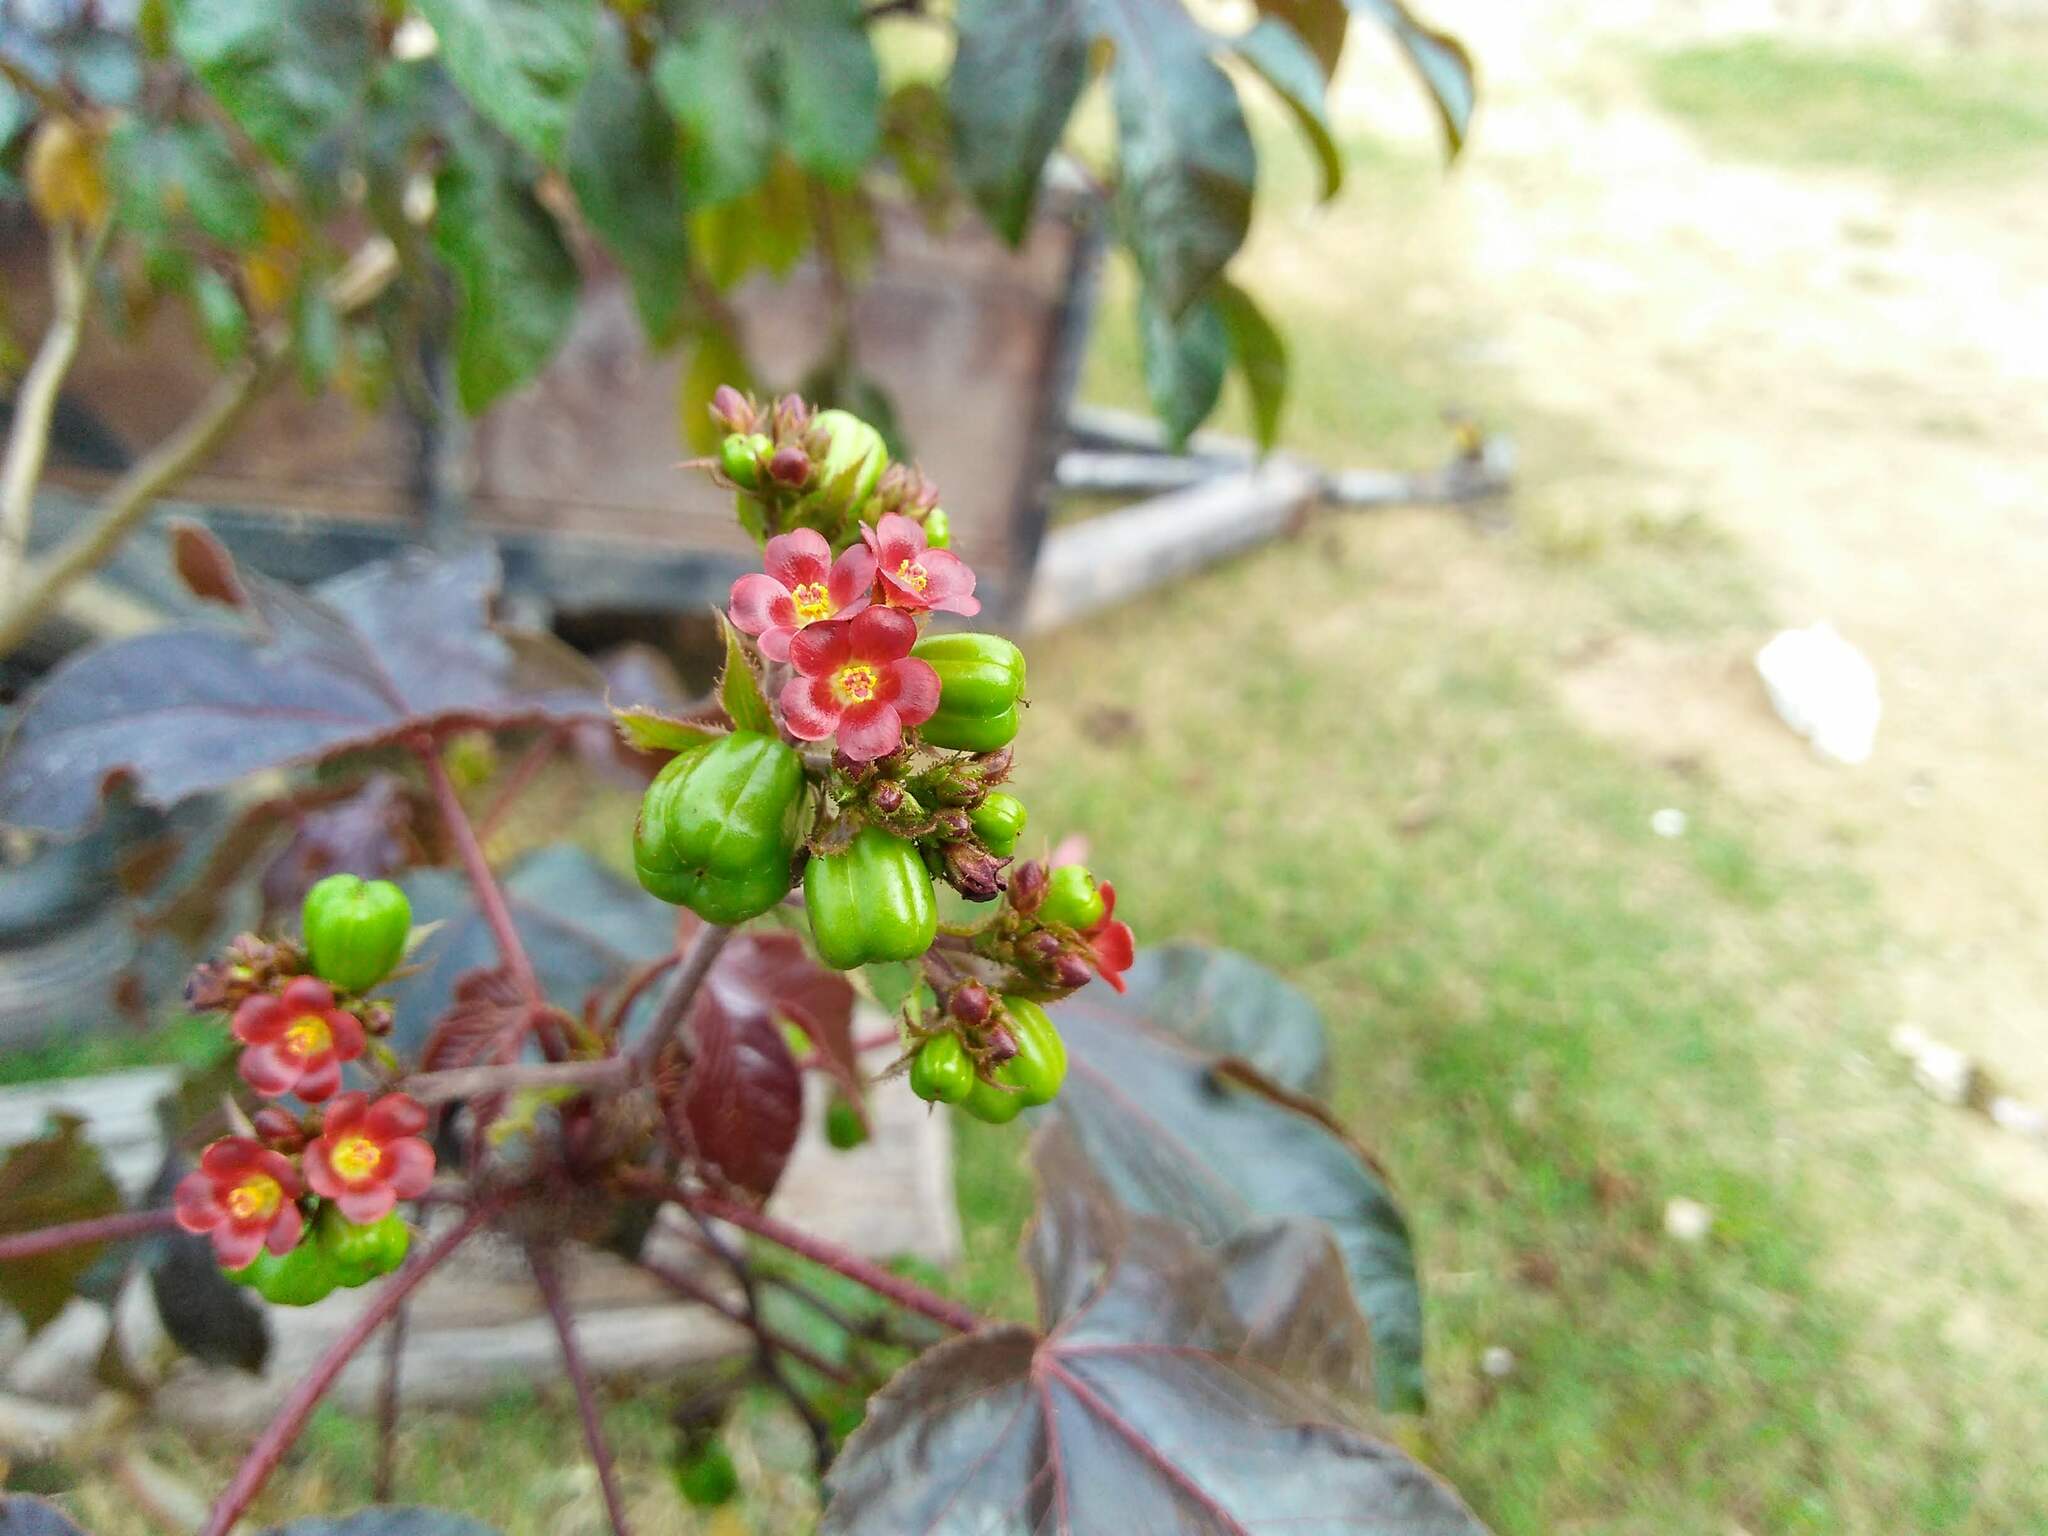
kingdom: Plantae
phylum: Tracheophyta
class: Magnoliopsida
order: Malpighiales
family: Euphorbiaceae
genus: Jatropha
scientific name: Jatropha gossypiifolia
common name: Bellyache bush
